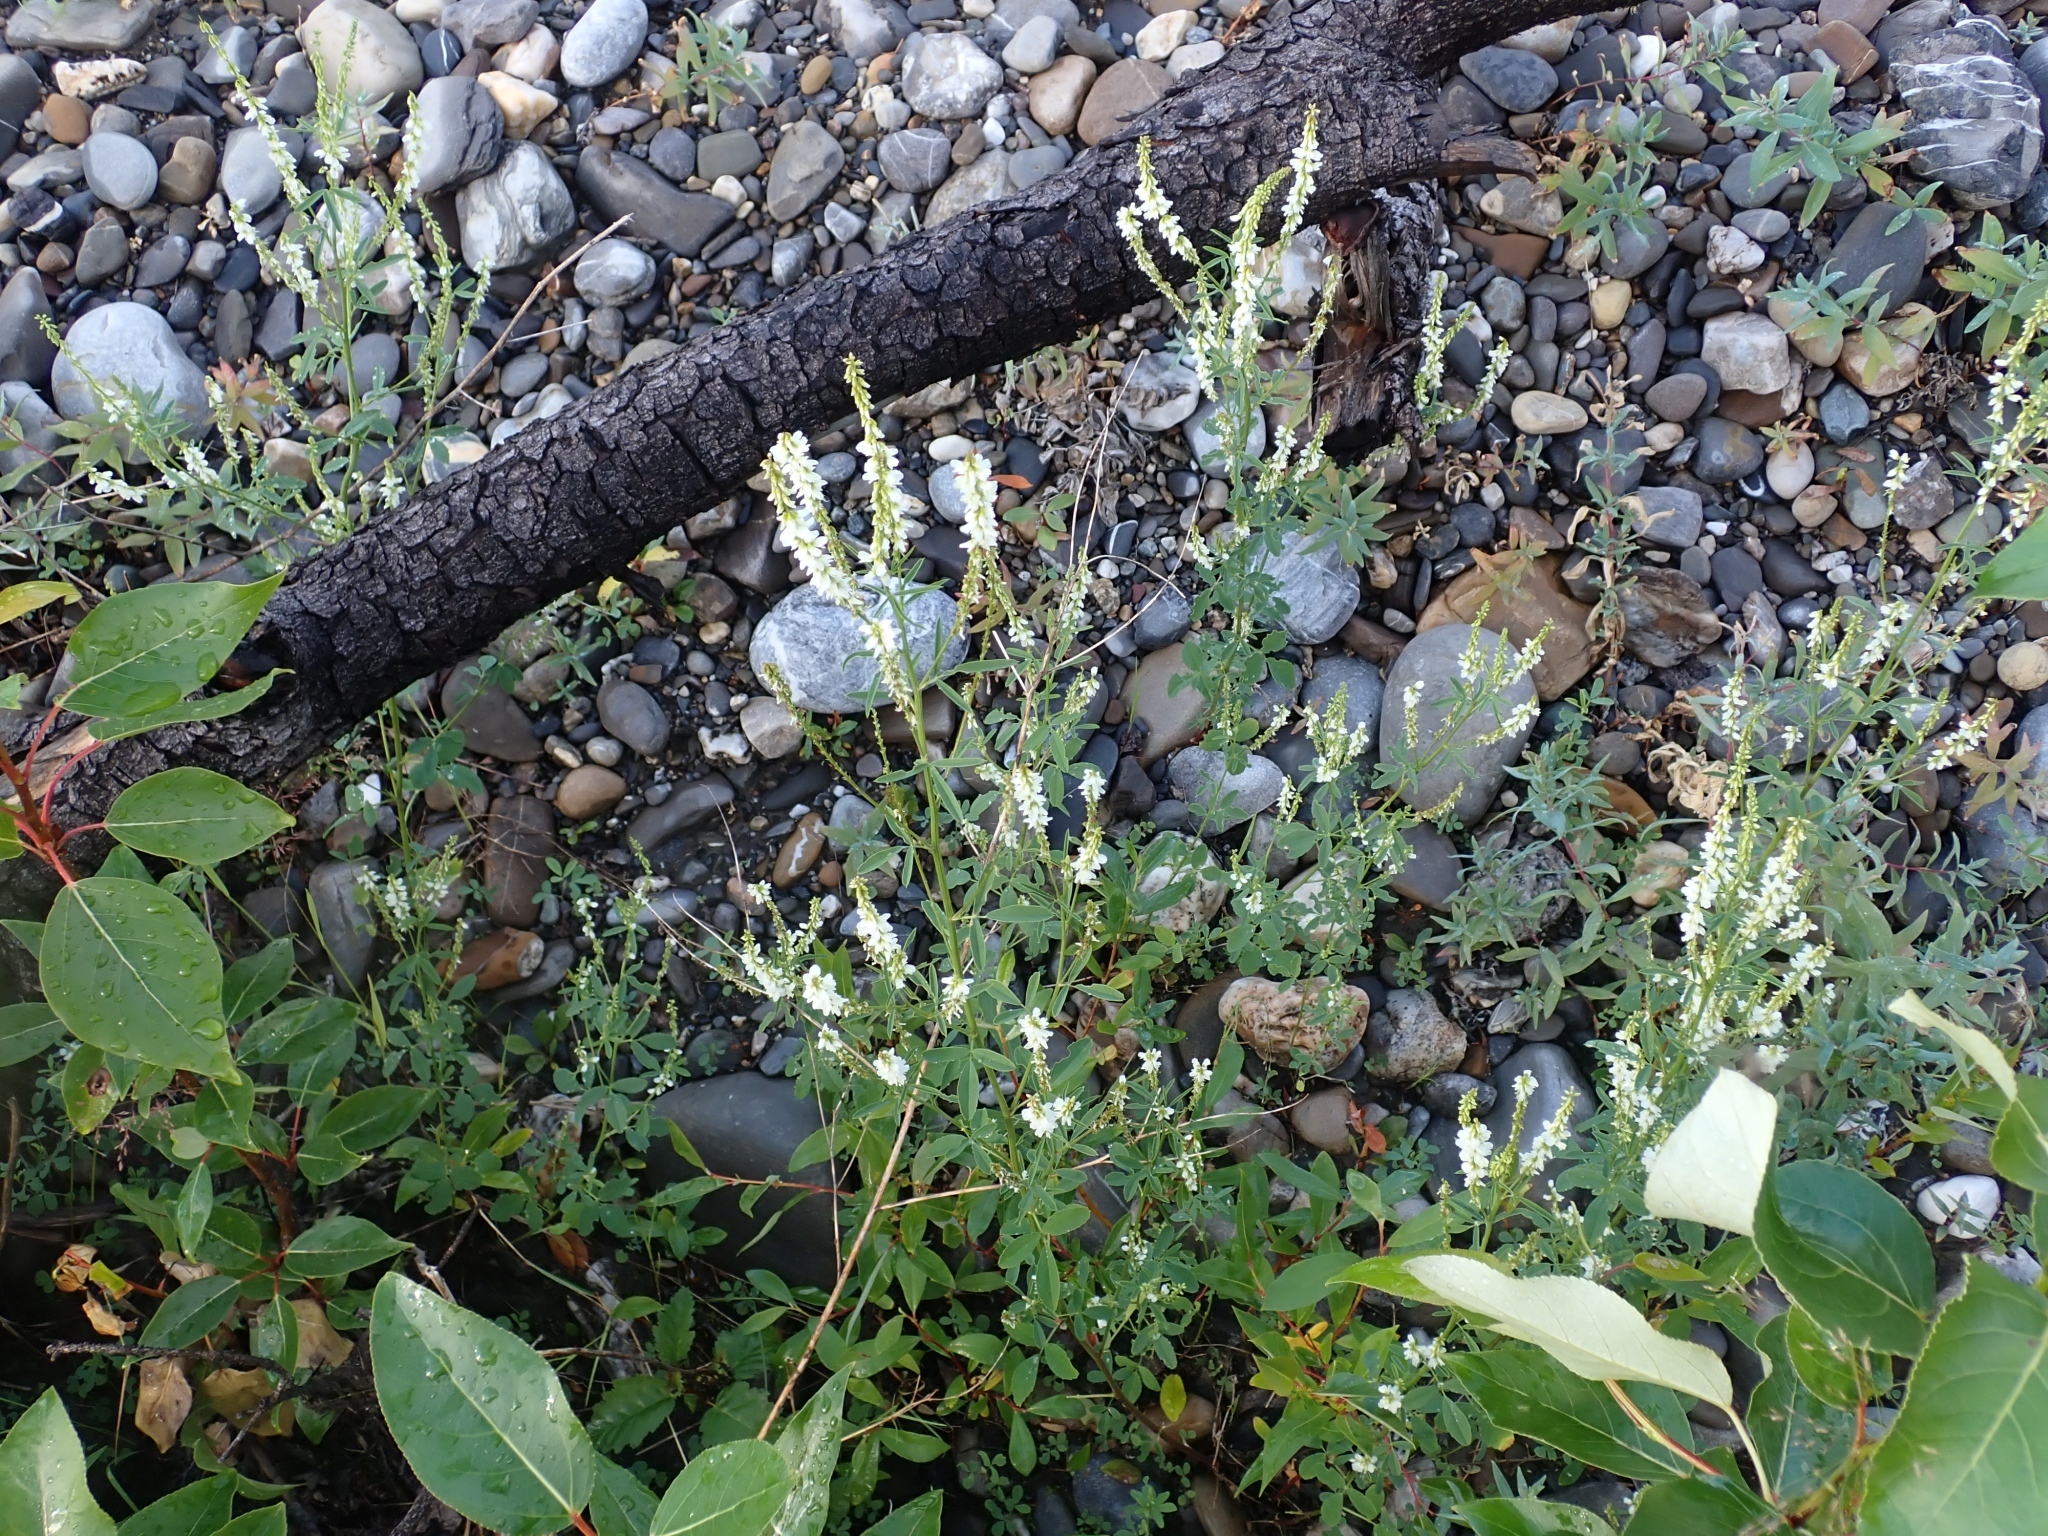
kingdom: Plantae
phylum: Tracheophyta
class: Magnoliopsida
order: Fabales
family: Fabaceae
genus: Melilotus
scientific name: Melilotus albus
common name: White melilot
